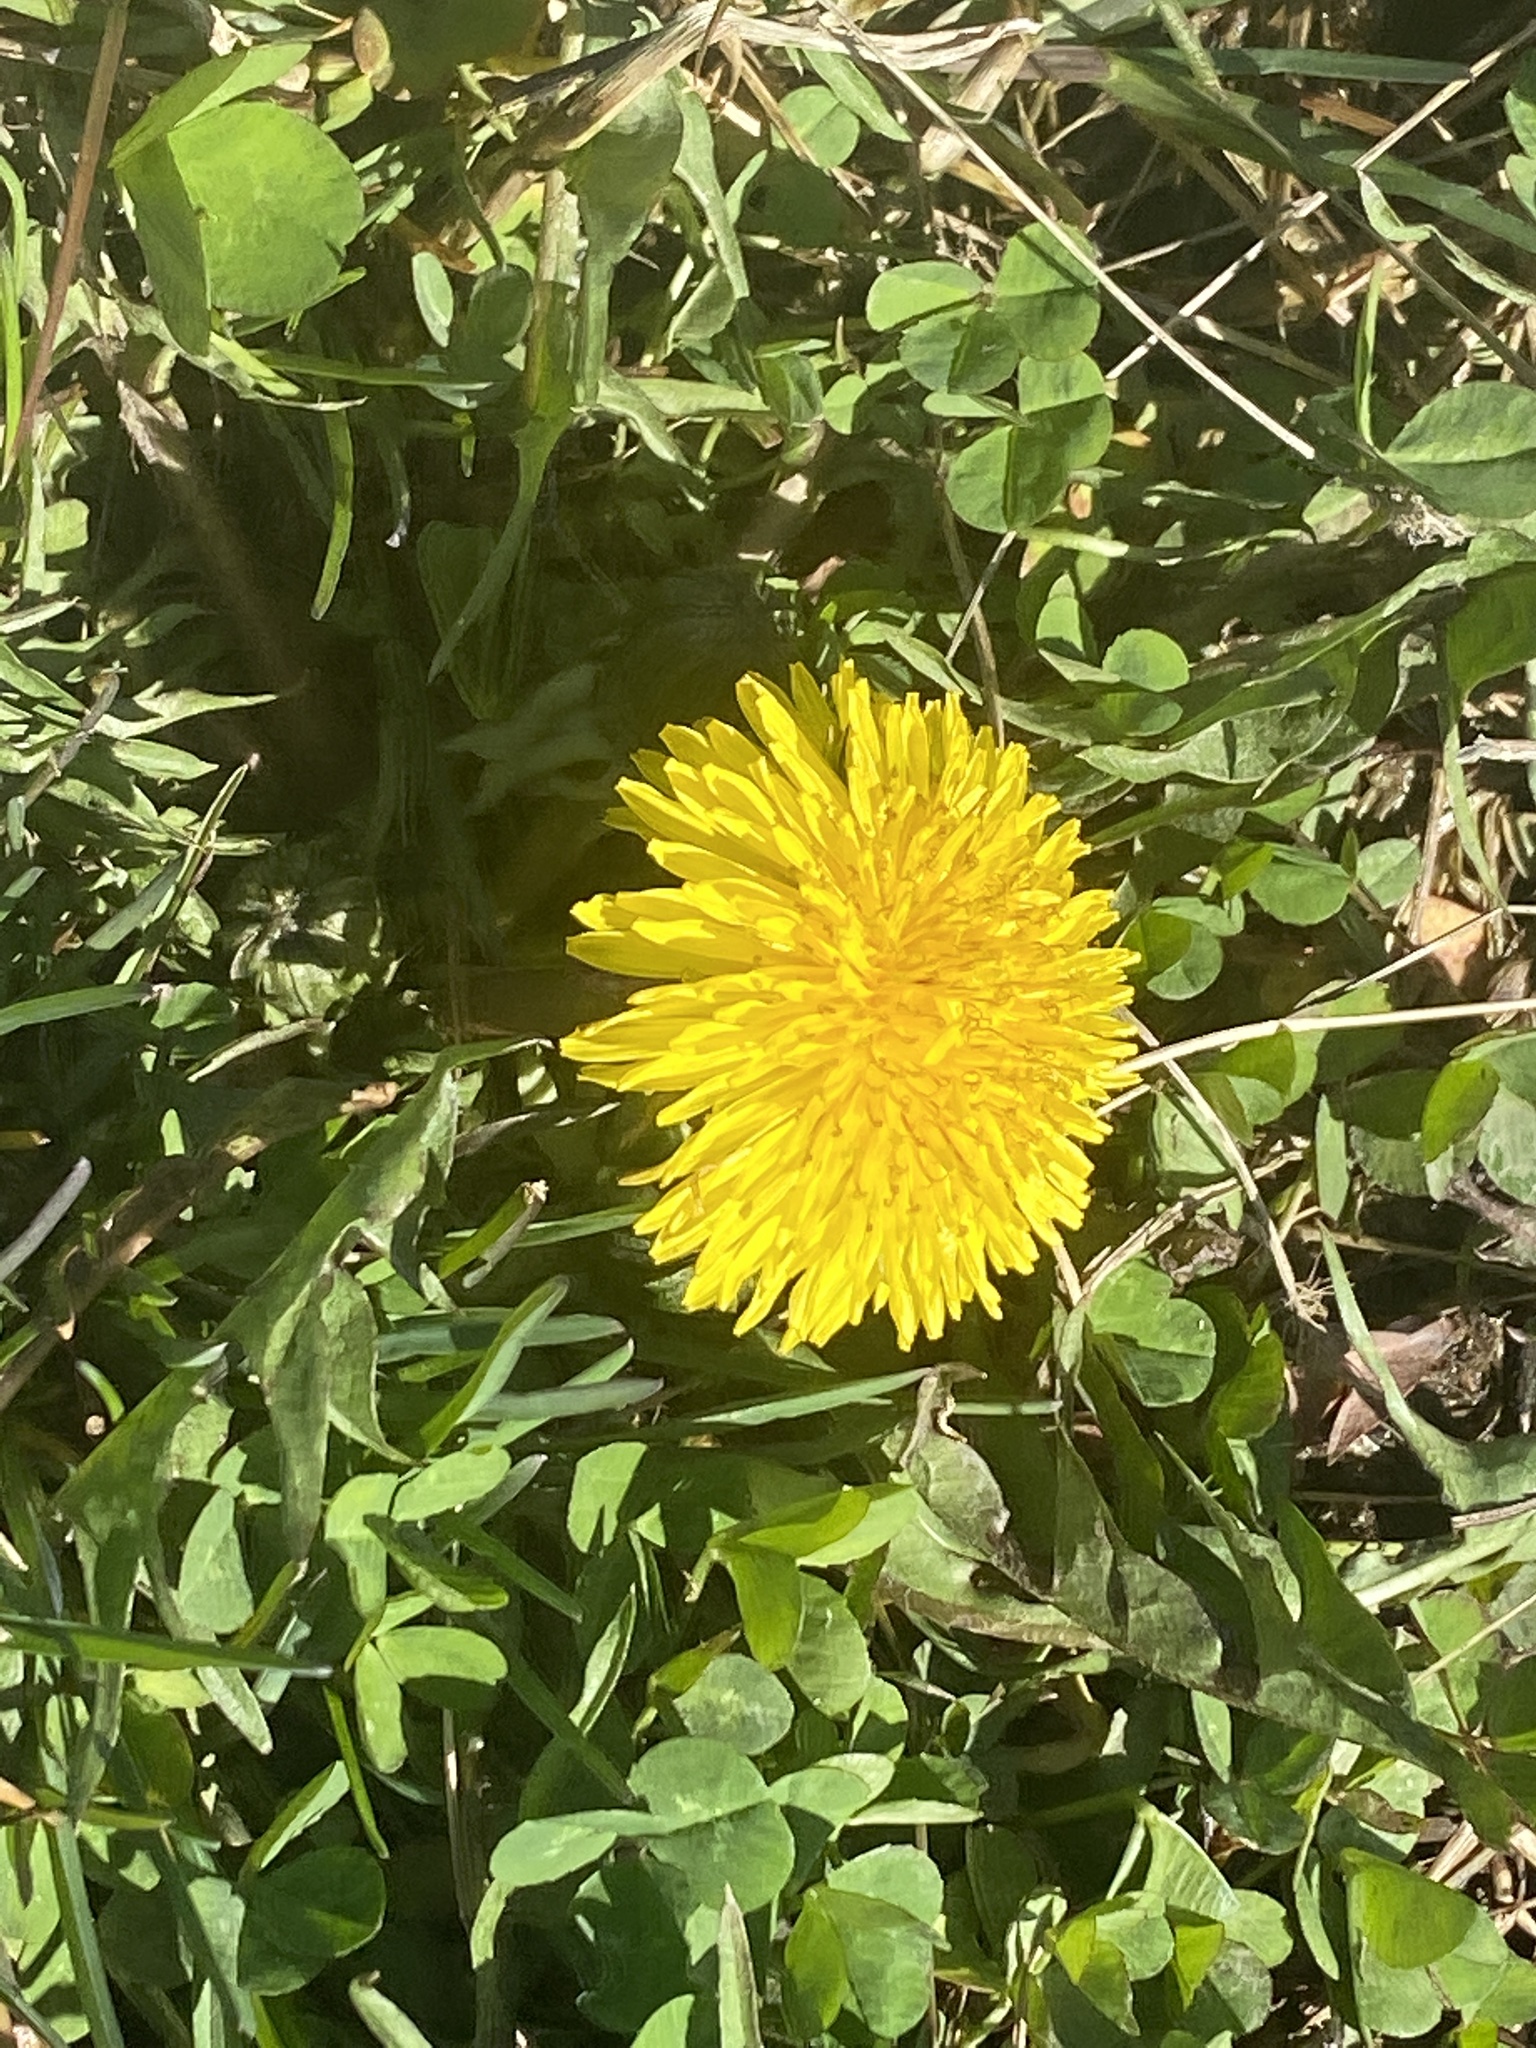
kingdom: Plantae
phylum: Tracheophyta
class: Magnoliopsida
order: Asterales
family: Asteraceae
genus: Taraxacum
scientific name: Taraxacum
